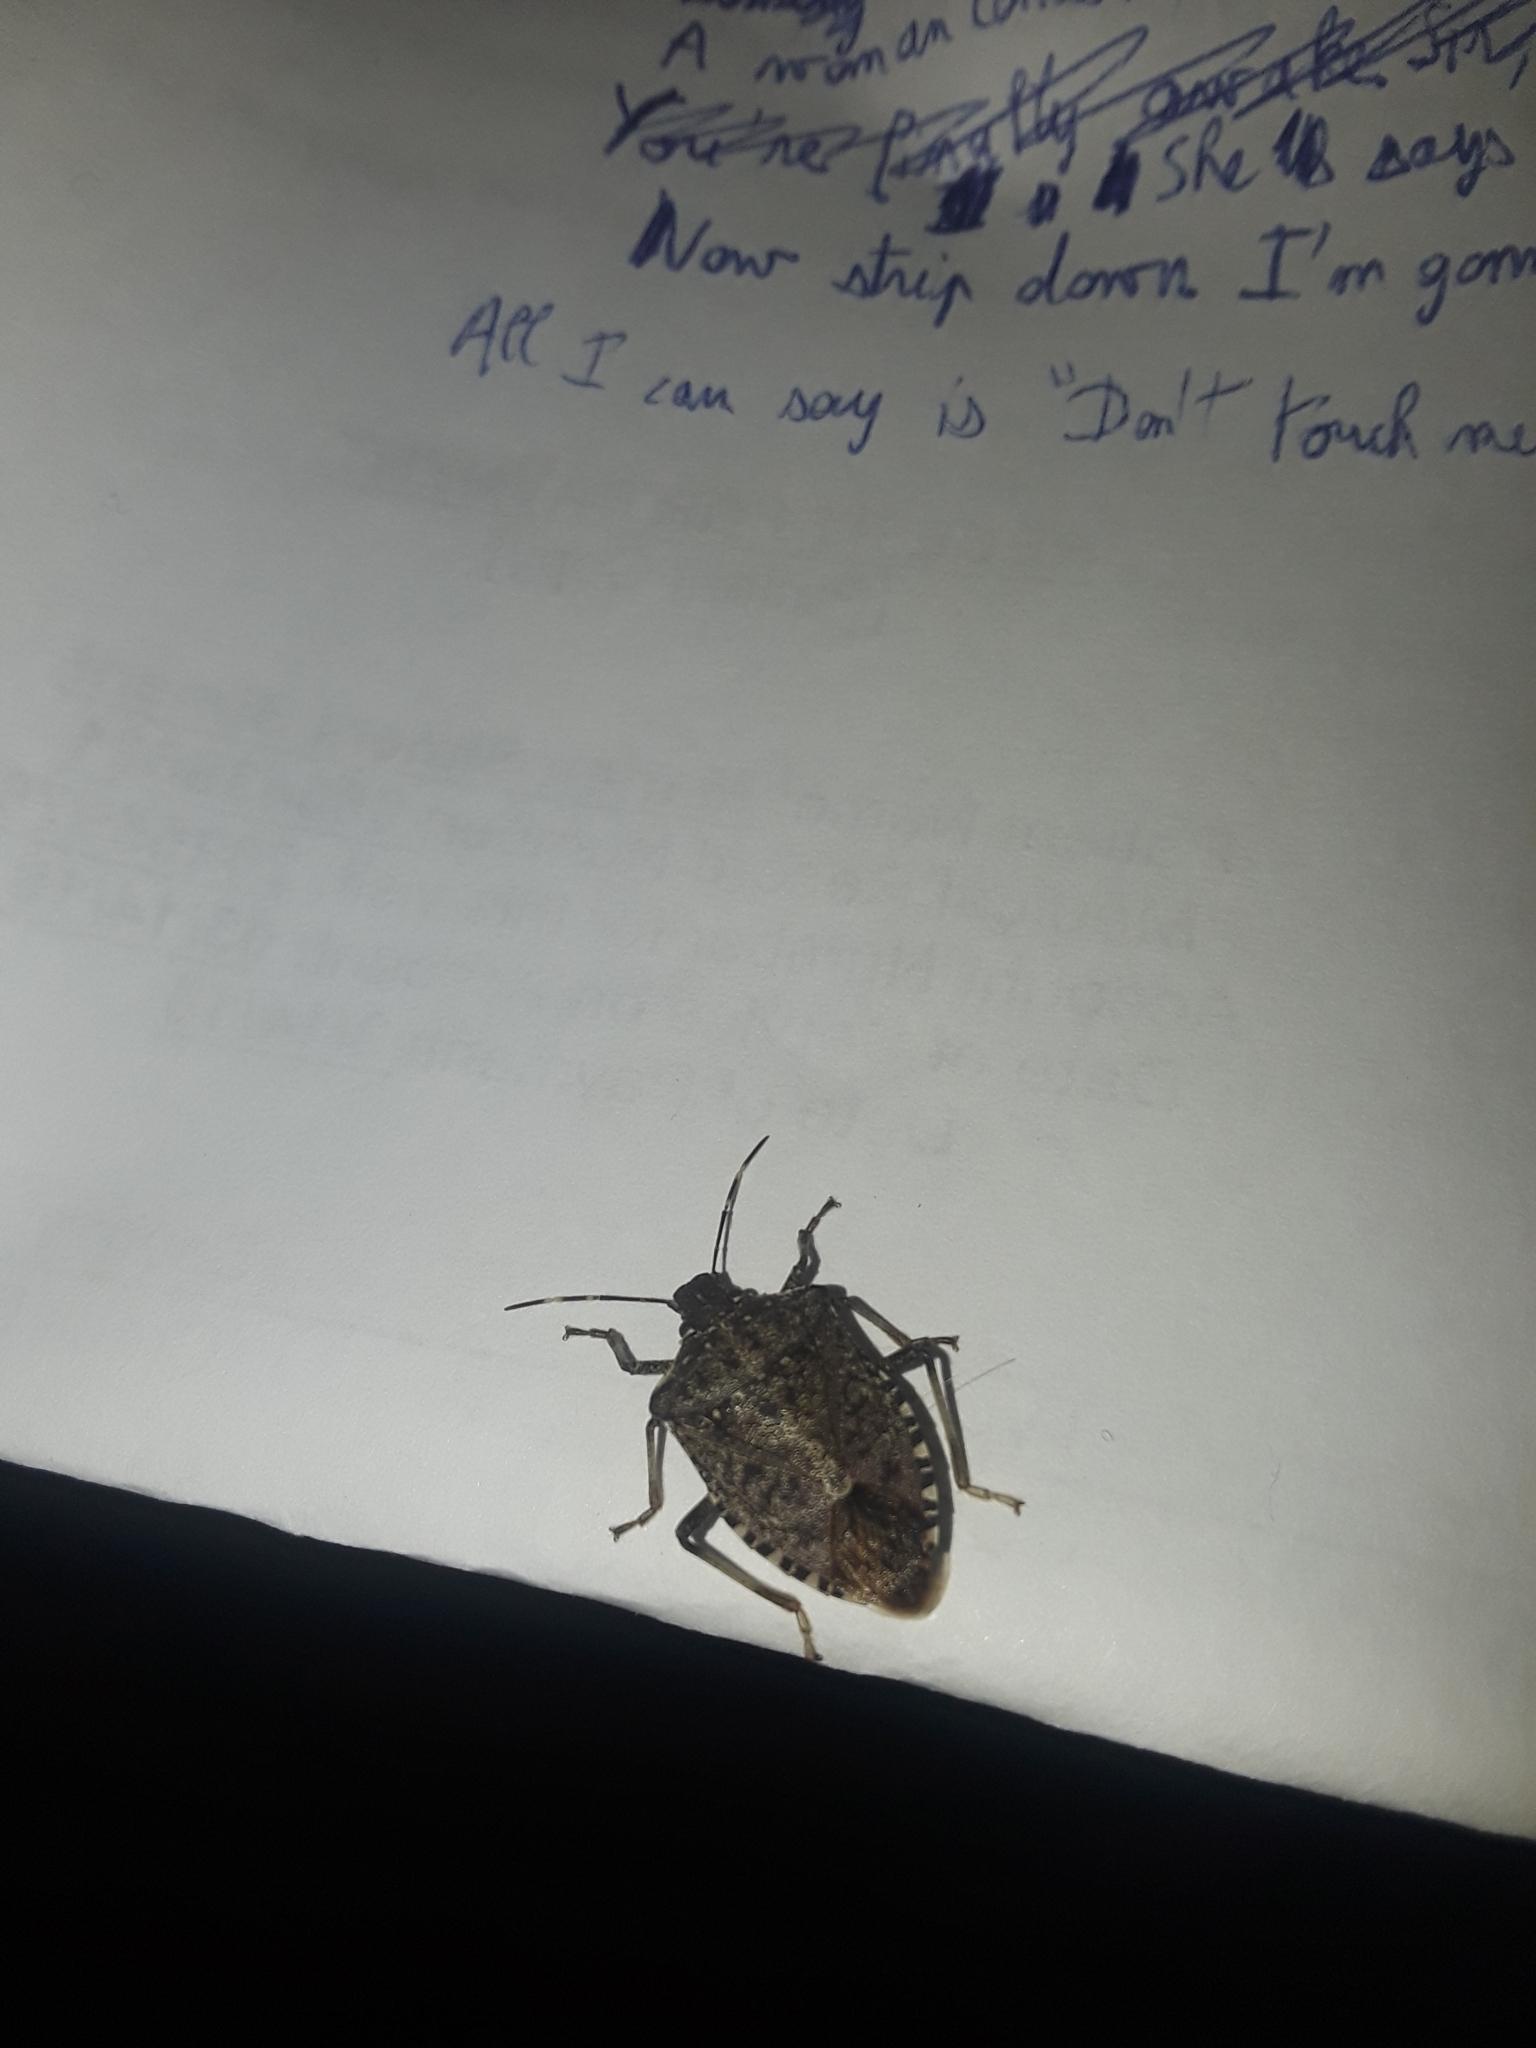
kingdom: Animalia
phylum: Arthropoda
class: Insecta
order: Hemiptera
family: Pentatomidae
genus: Halyomorpha
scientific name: Halyomorpha halys
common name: Brown marmorated stink bug
